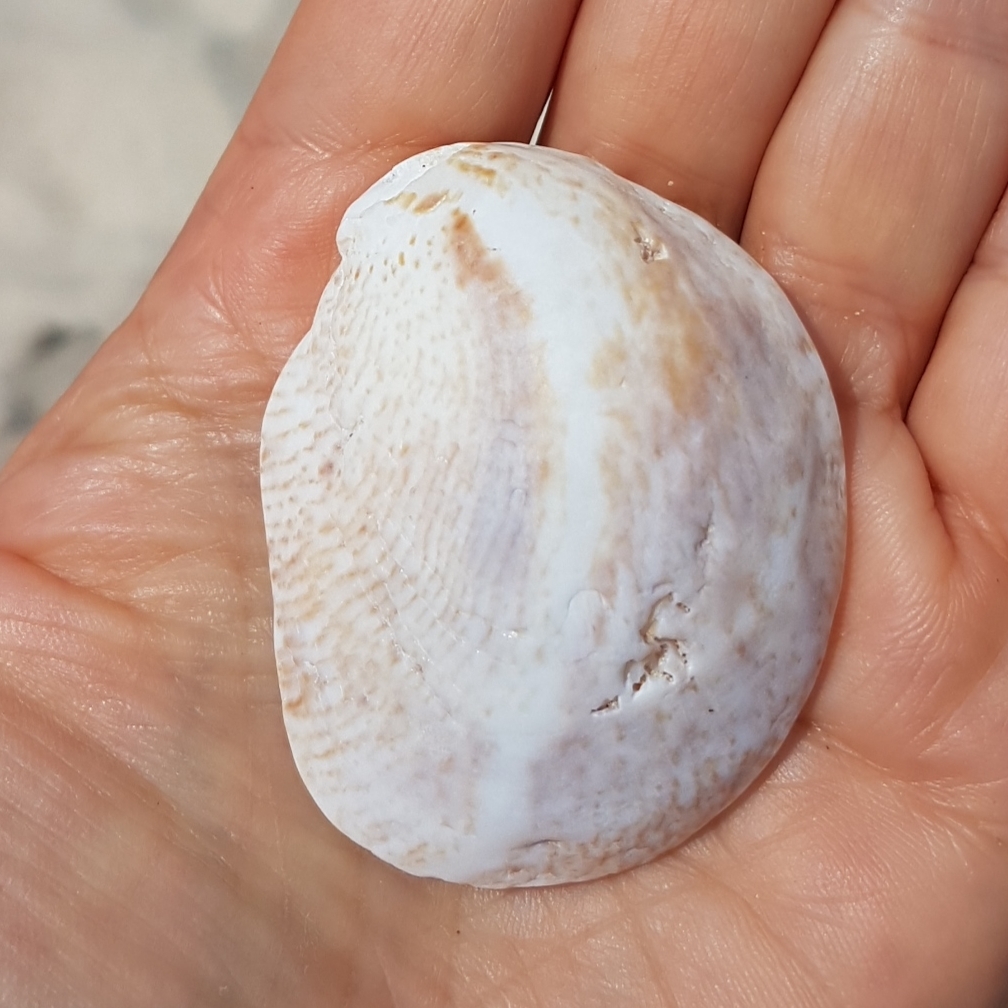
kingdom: Animalia
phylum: Mollusca
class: Gastropoda
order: Littorinimorpha
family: Calyptraeidae
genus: Crepidula
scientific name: Crepidula fornicata
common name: Slipper limpet
